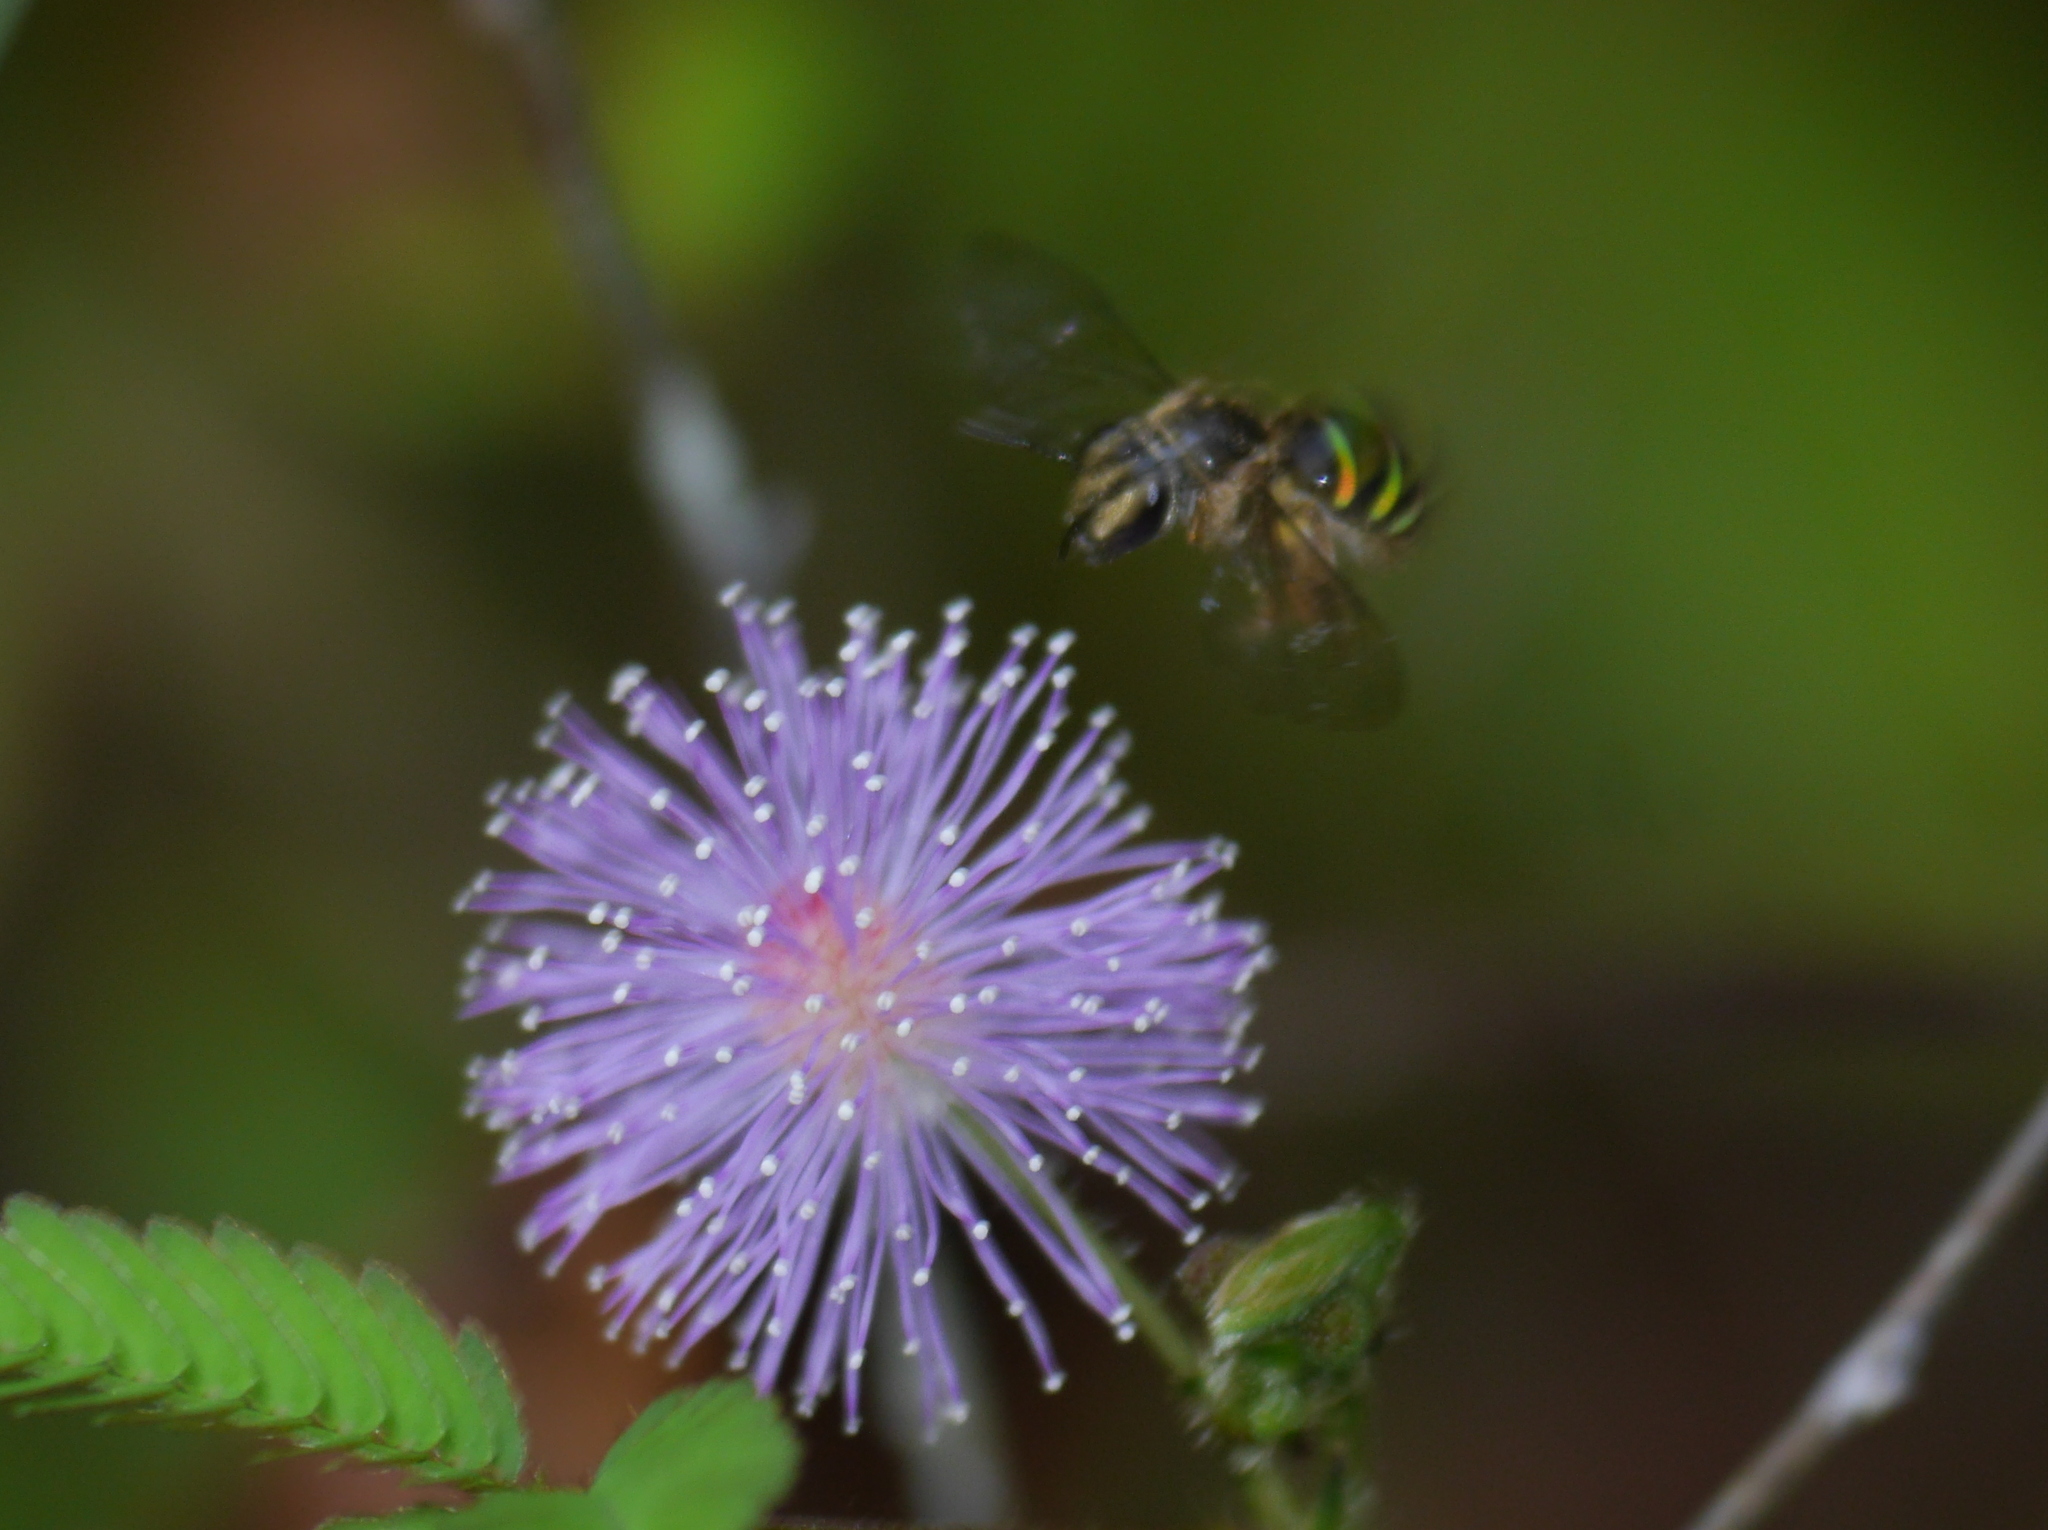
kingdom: Animalia
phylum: Arthropoda
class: Insecta
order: Hymenoptera
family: Halictidae
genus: Nomia
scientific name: Nomia strigata
